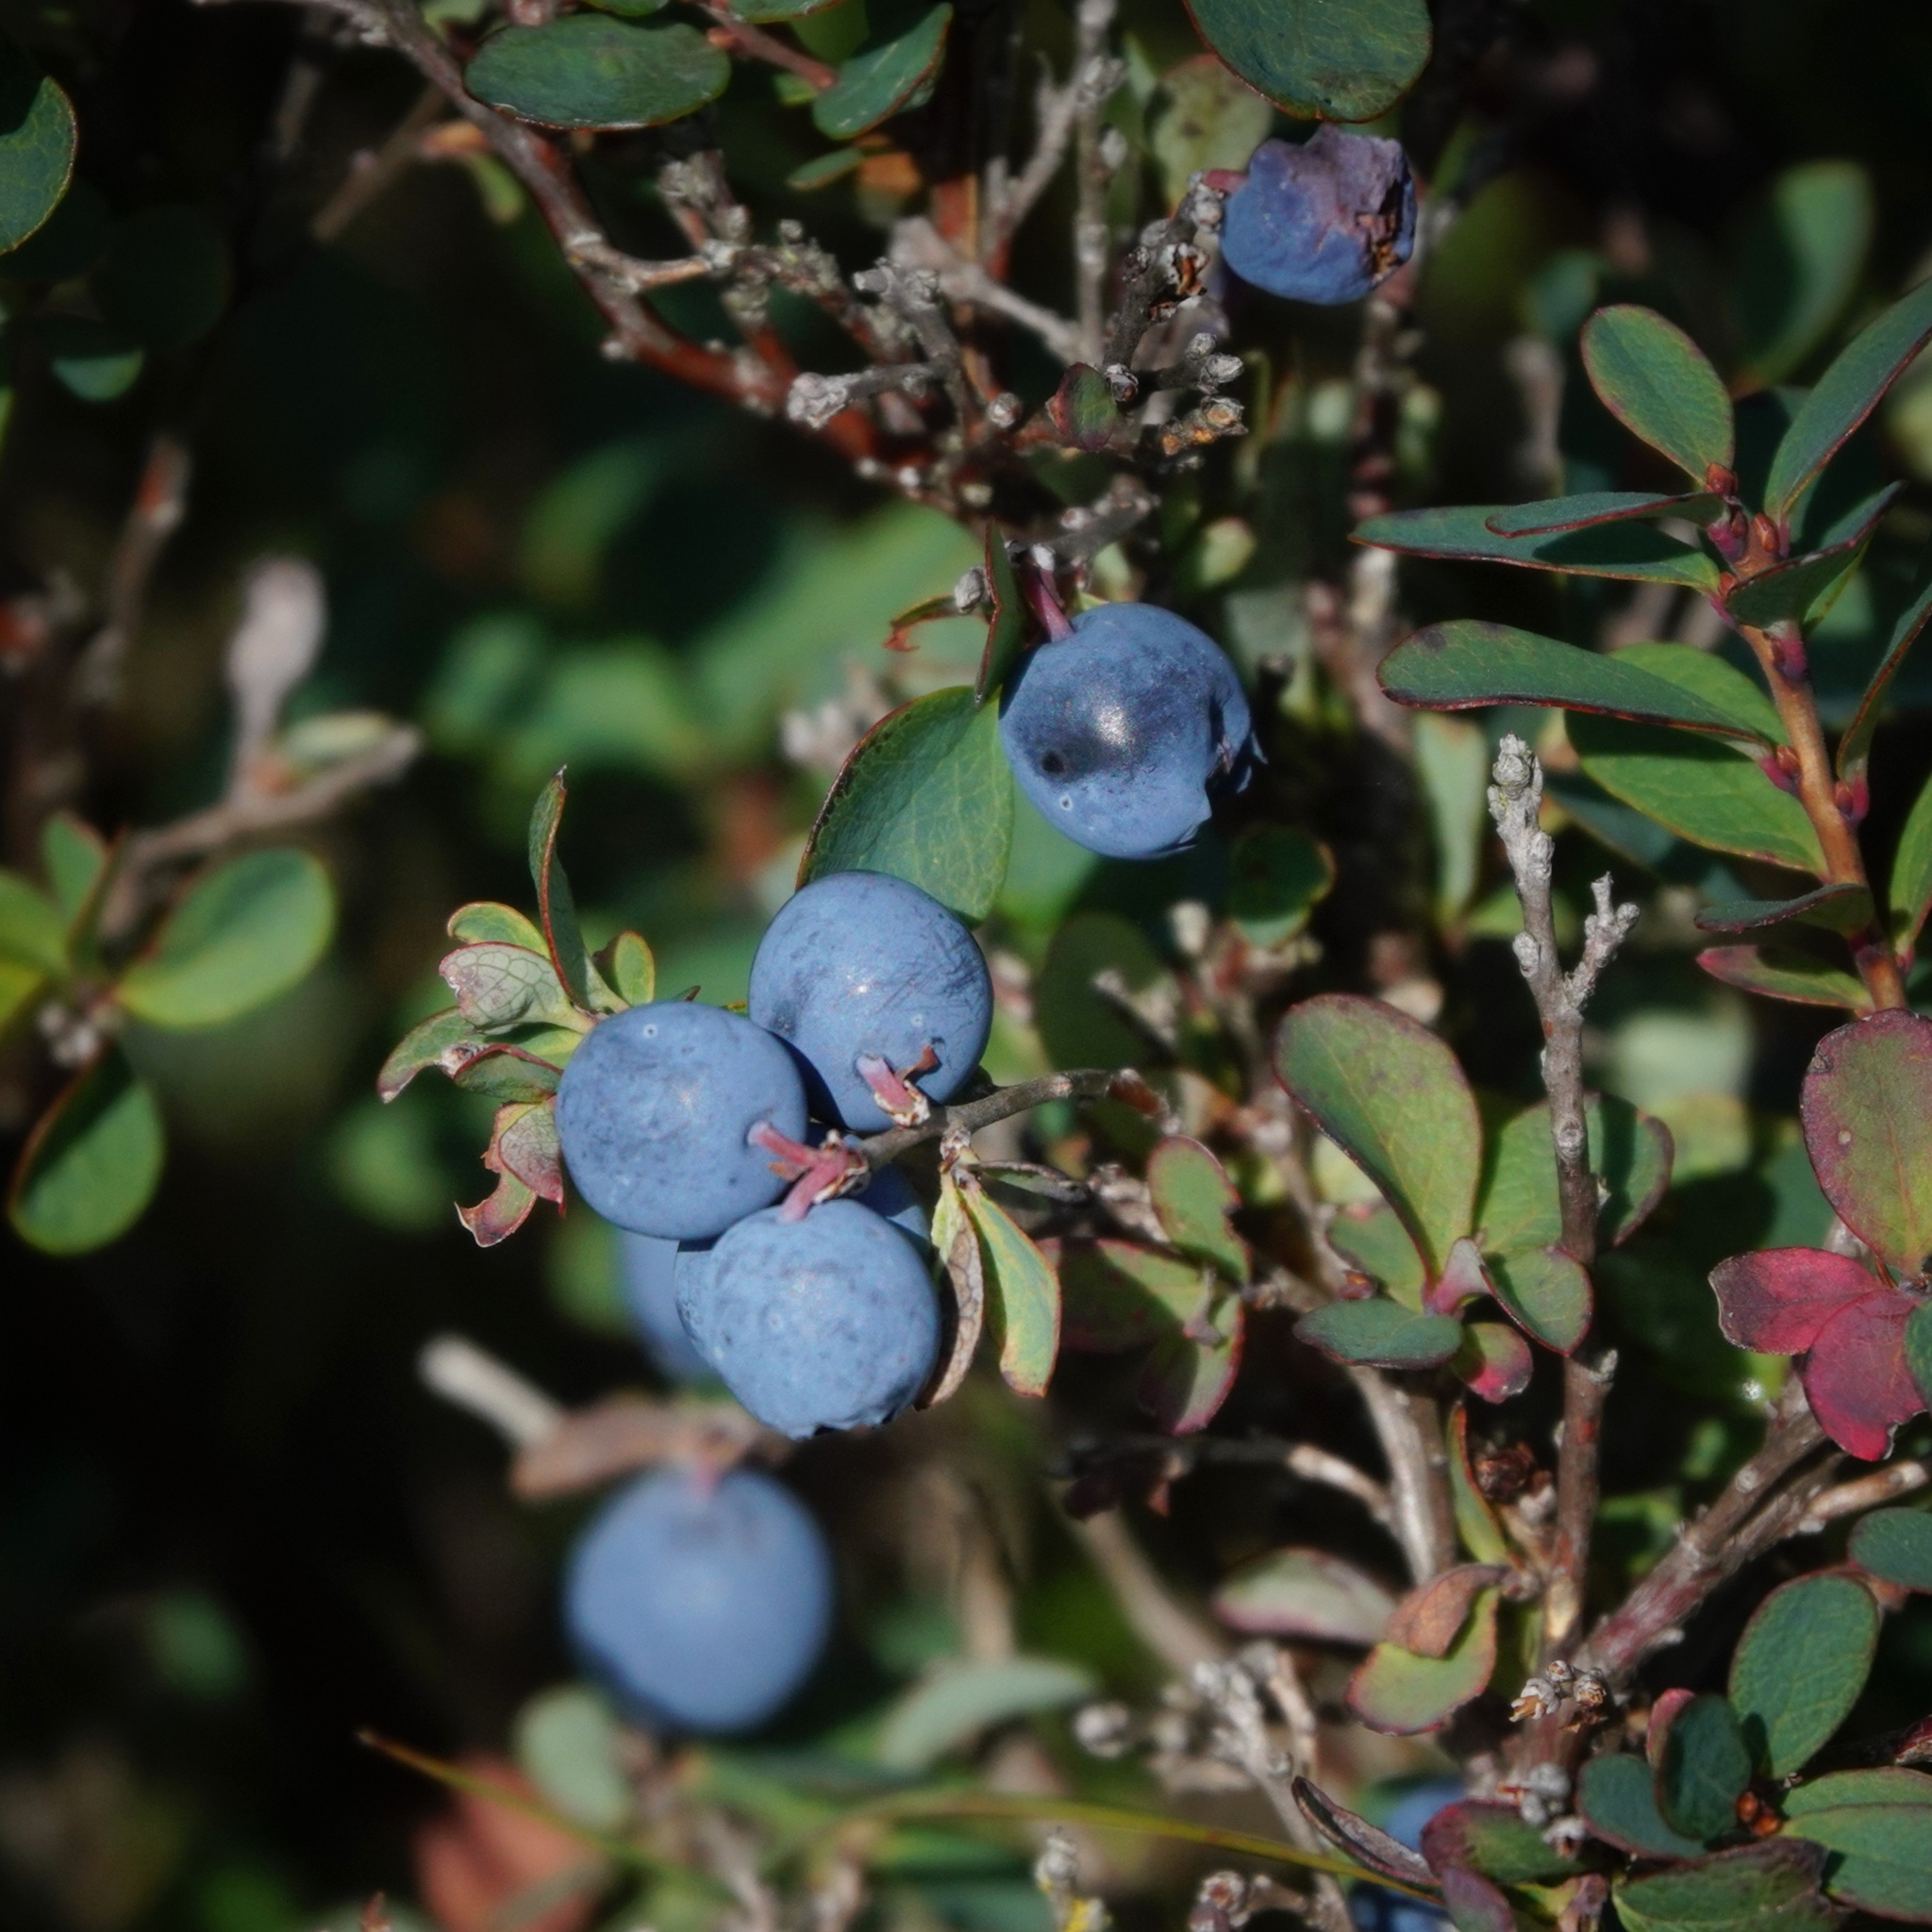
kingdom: Plantae
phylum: Tracheophyta
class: Magnoliopsida
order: Ericales
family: Ericaceae
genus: Vaccinium
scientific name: Vaccinium uliginosum
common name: Bog bilberry
